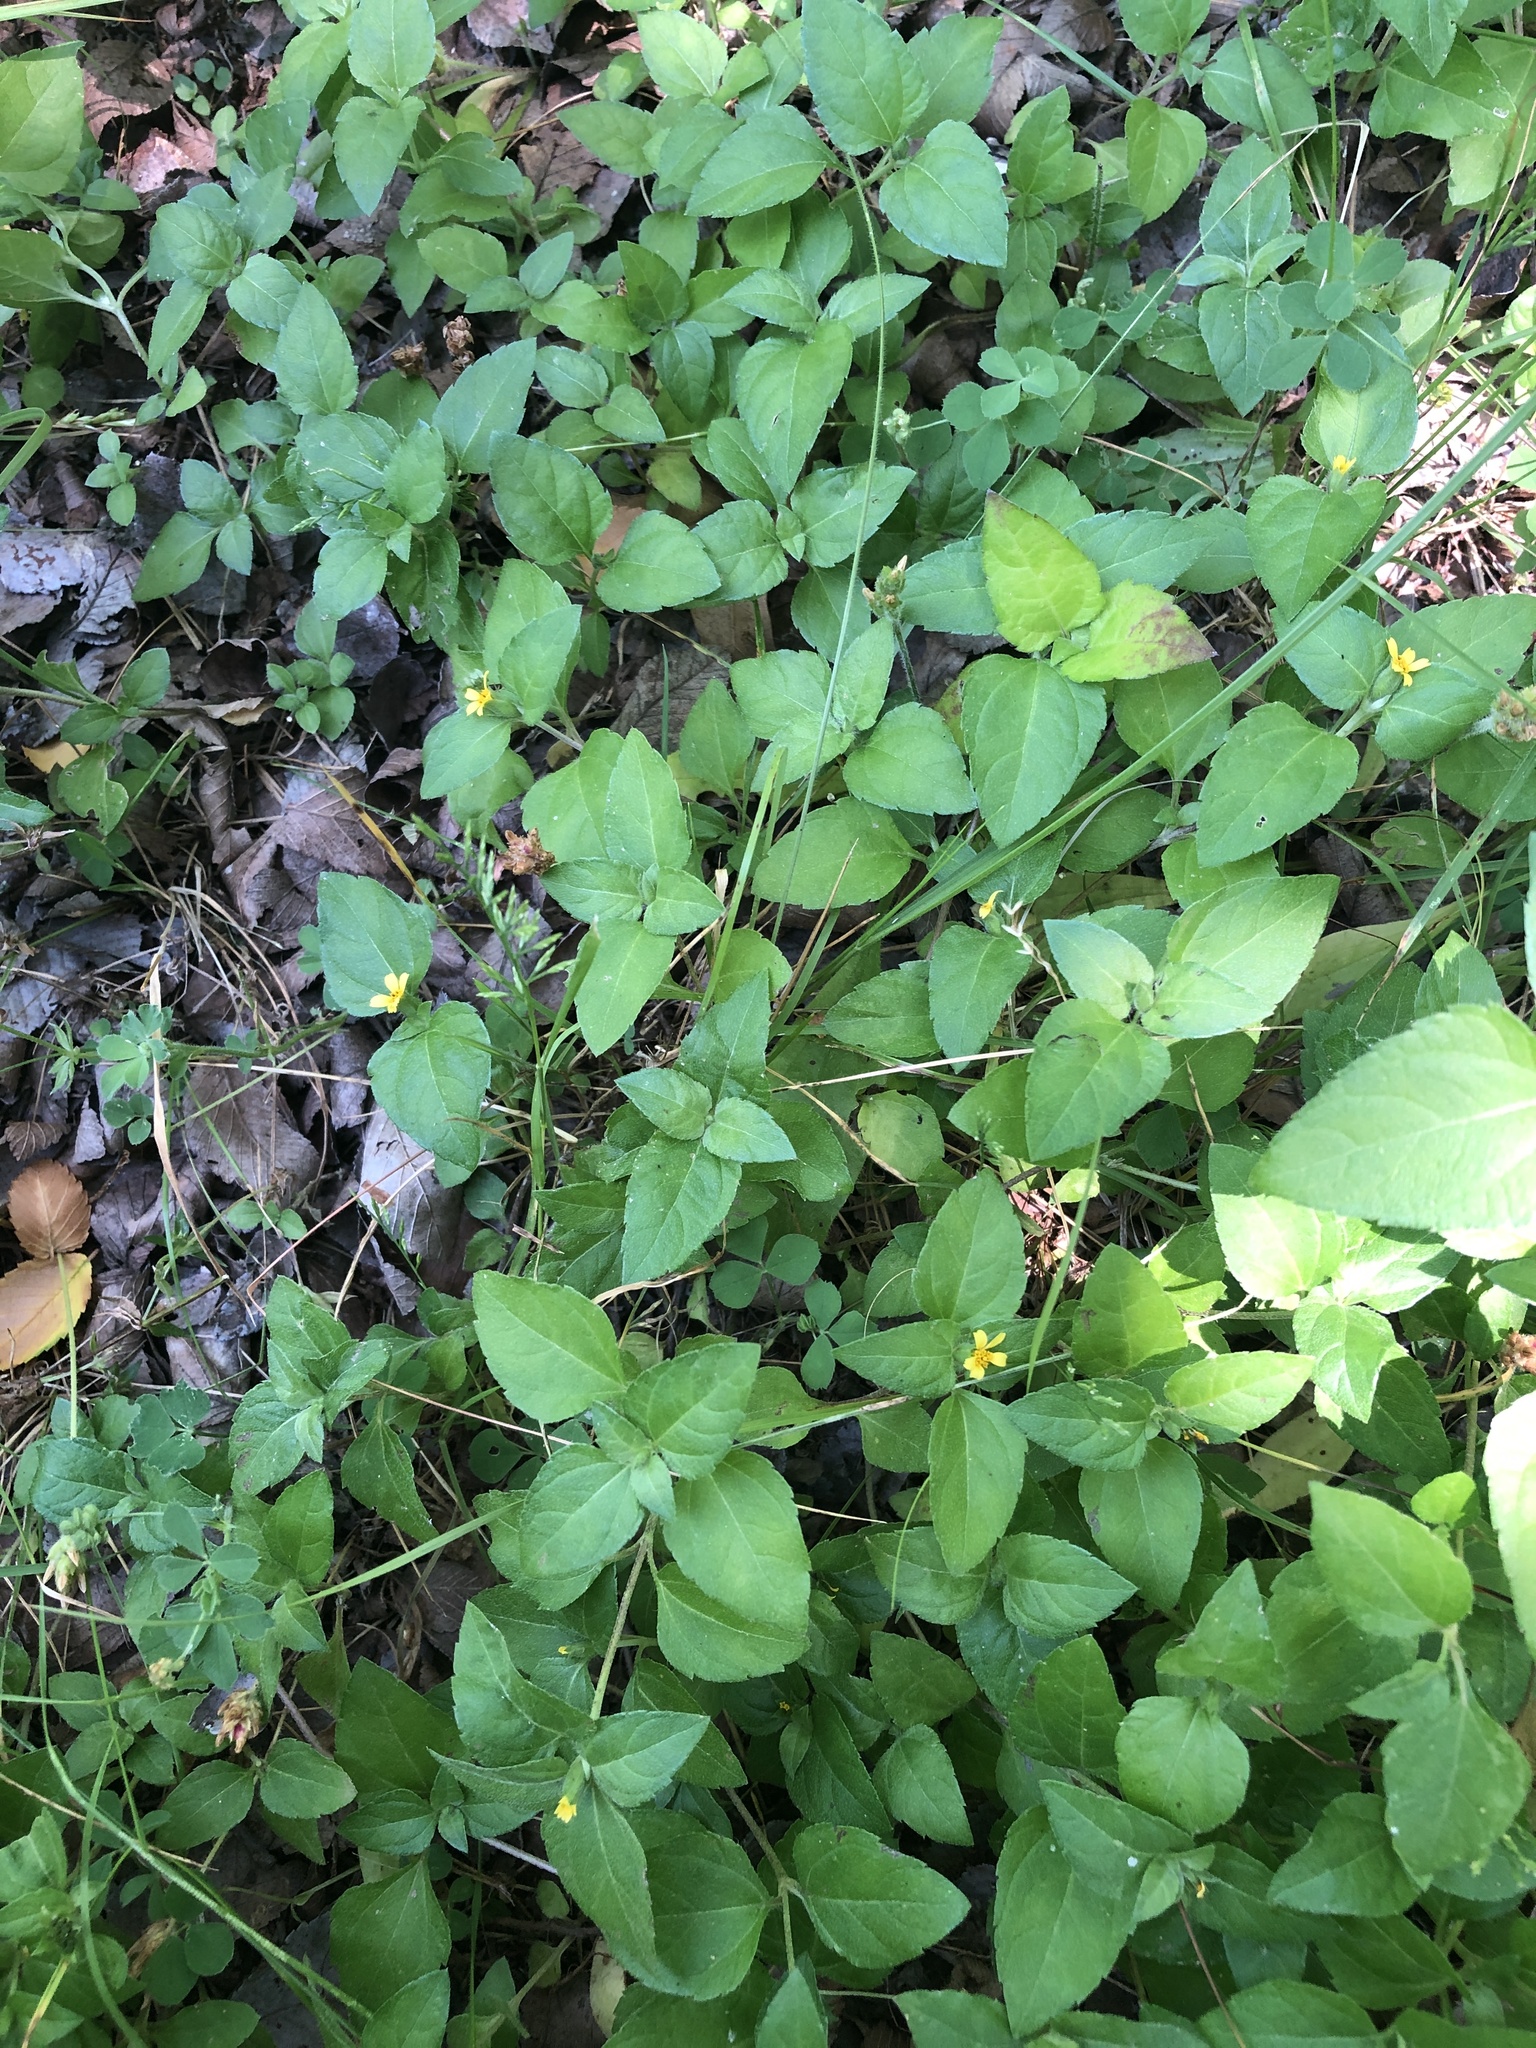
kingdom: Plantae
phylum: Tracheophyta
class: Magnoliopsida
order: Asterales
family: Asteraceae
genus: Calyptocarpus
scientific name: Calyptocarpus vialis
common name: Straggler daisy
